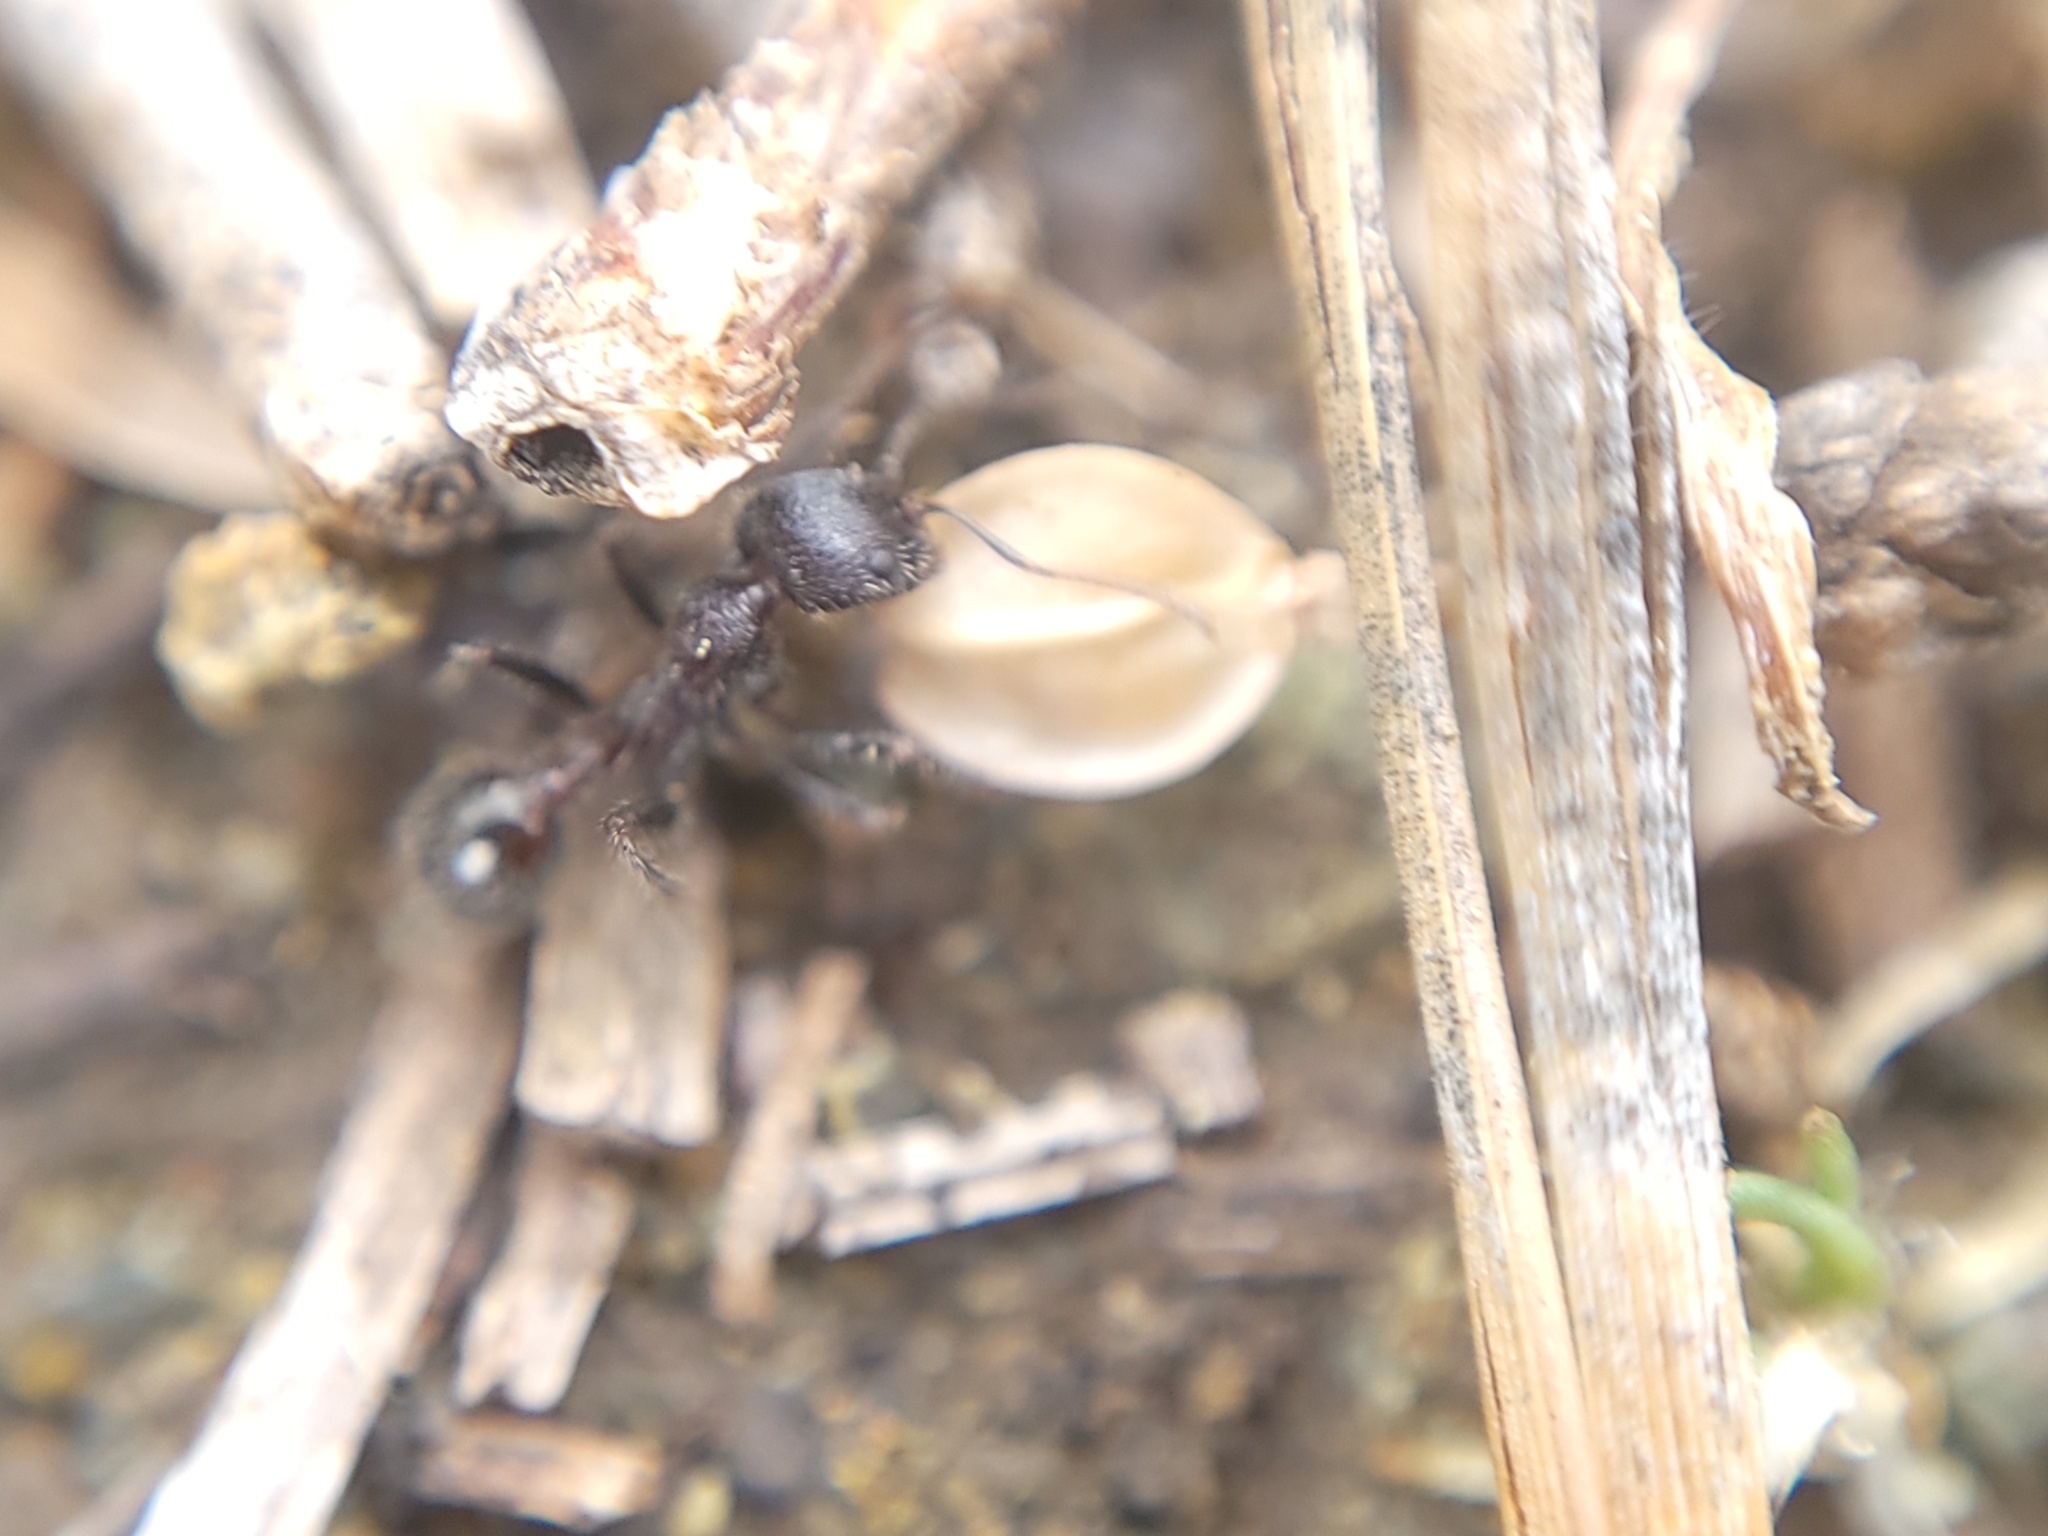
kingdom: Animalia
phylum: Arthropoda
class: Insecta
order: Hymenoptera
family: Formicidae
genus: Veromessor
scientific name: Veromessor andrei
